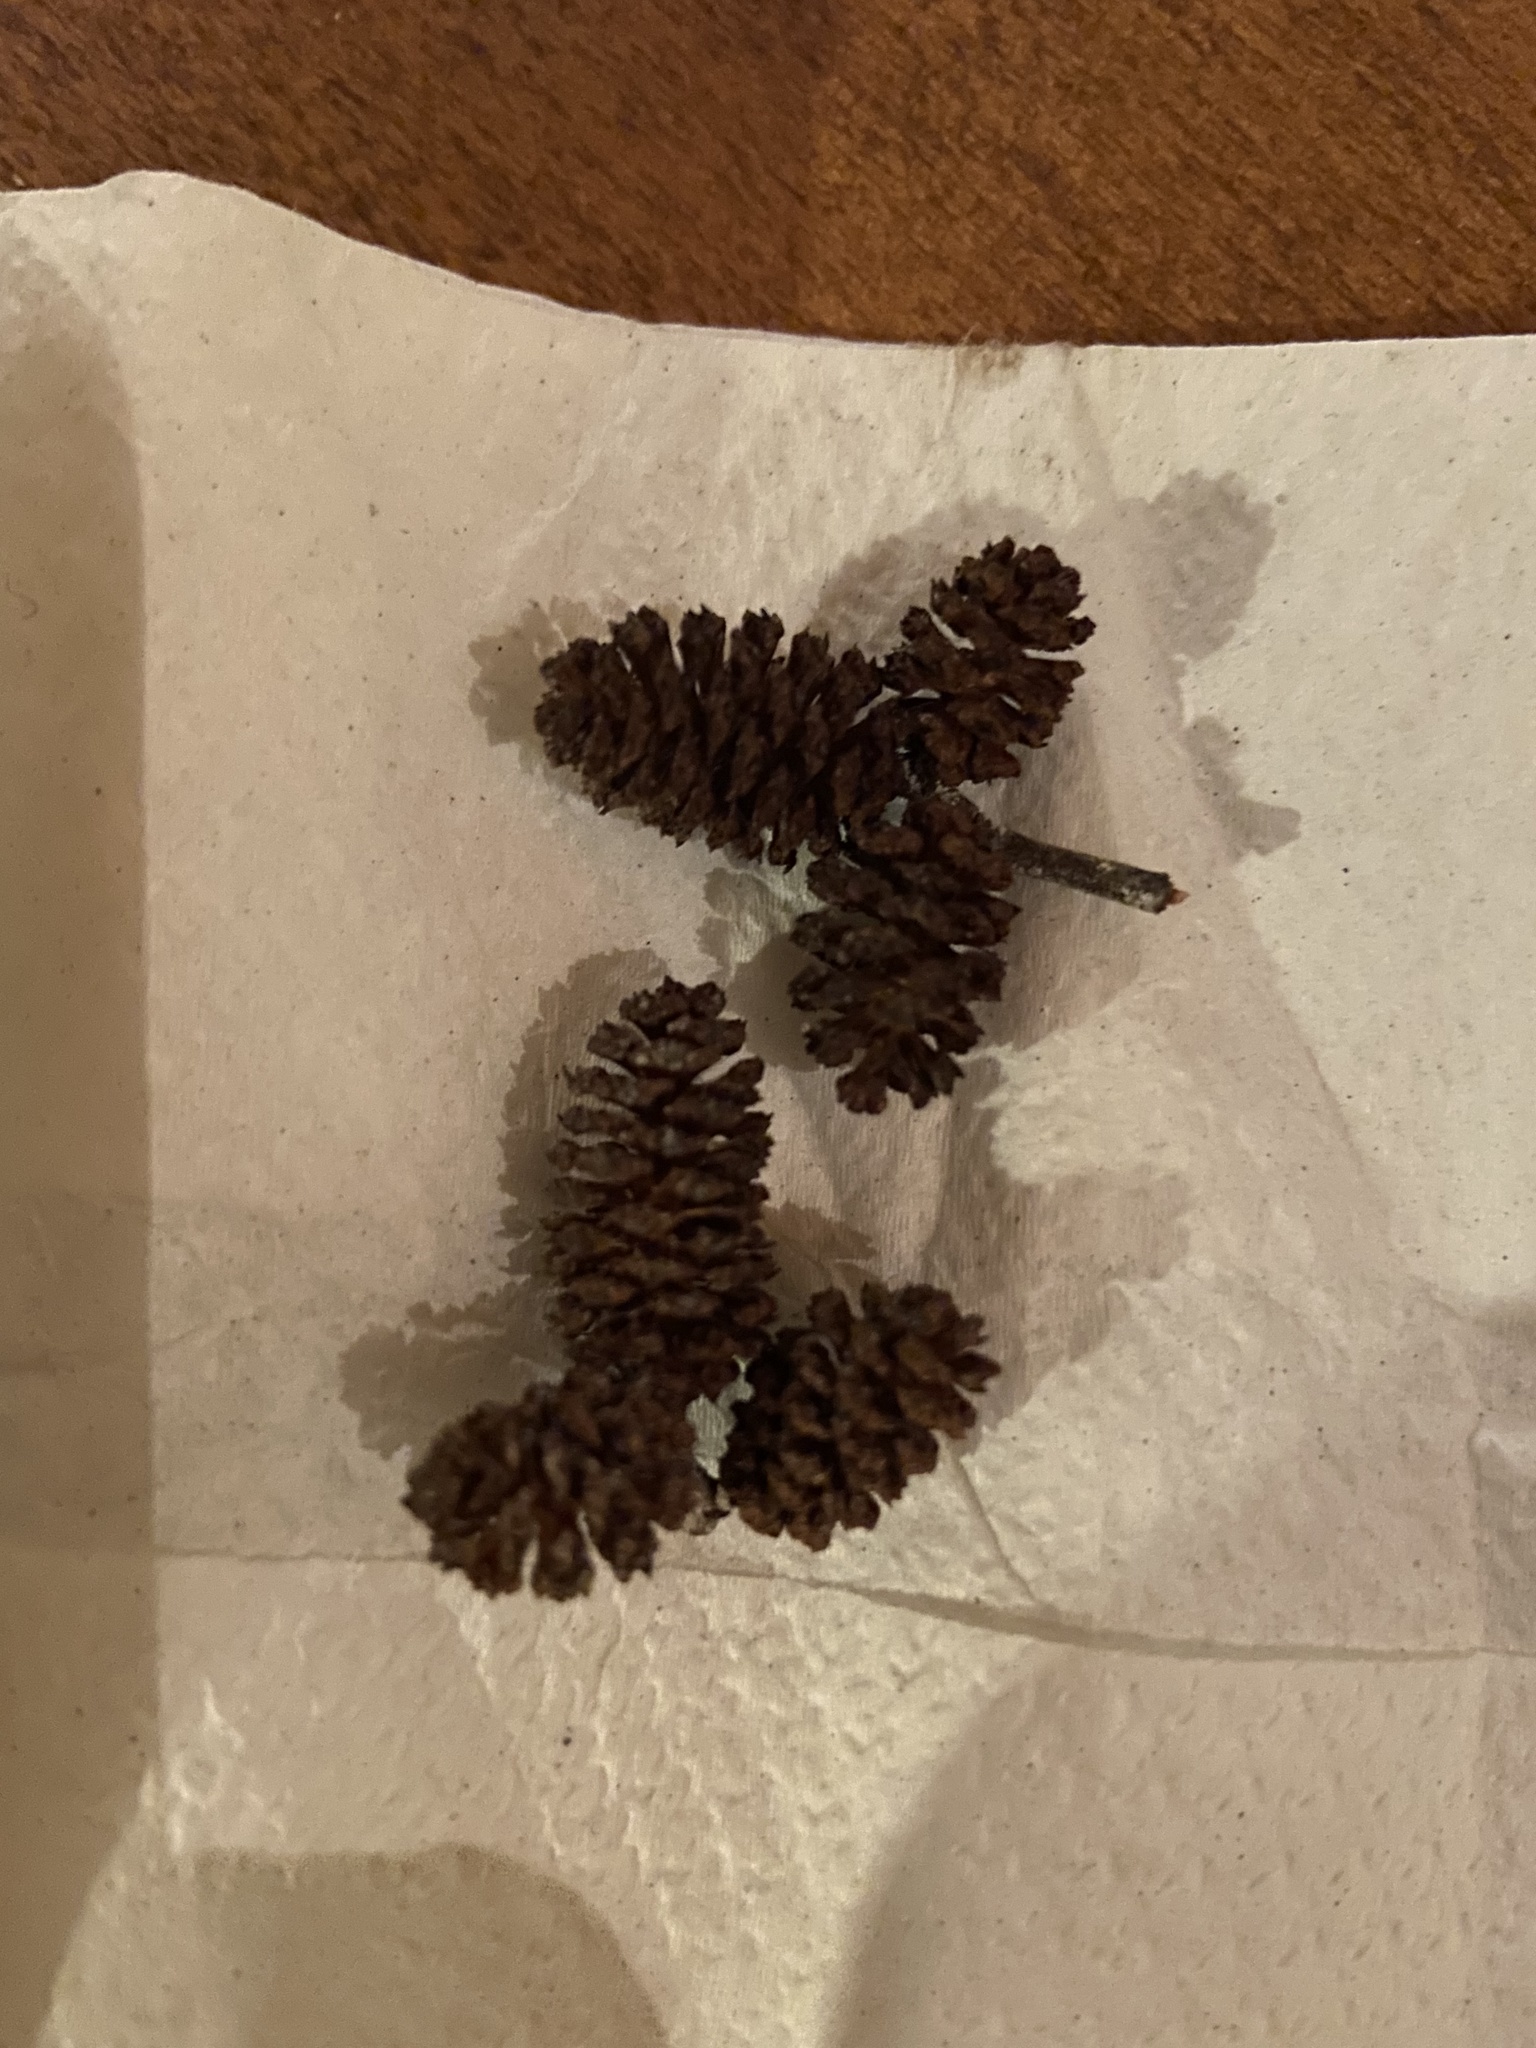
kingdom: Plantae
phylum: Tracheophyta
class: Magnoliopsida
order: Fagales
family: Betulaceae
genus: Alnus
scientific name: Alnus incana
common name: Grey alder
